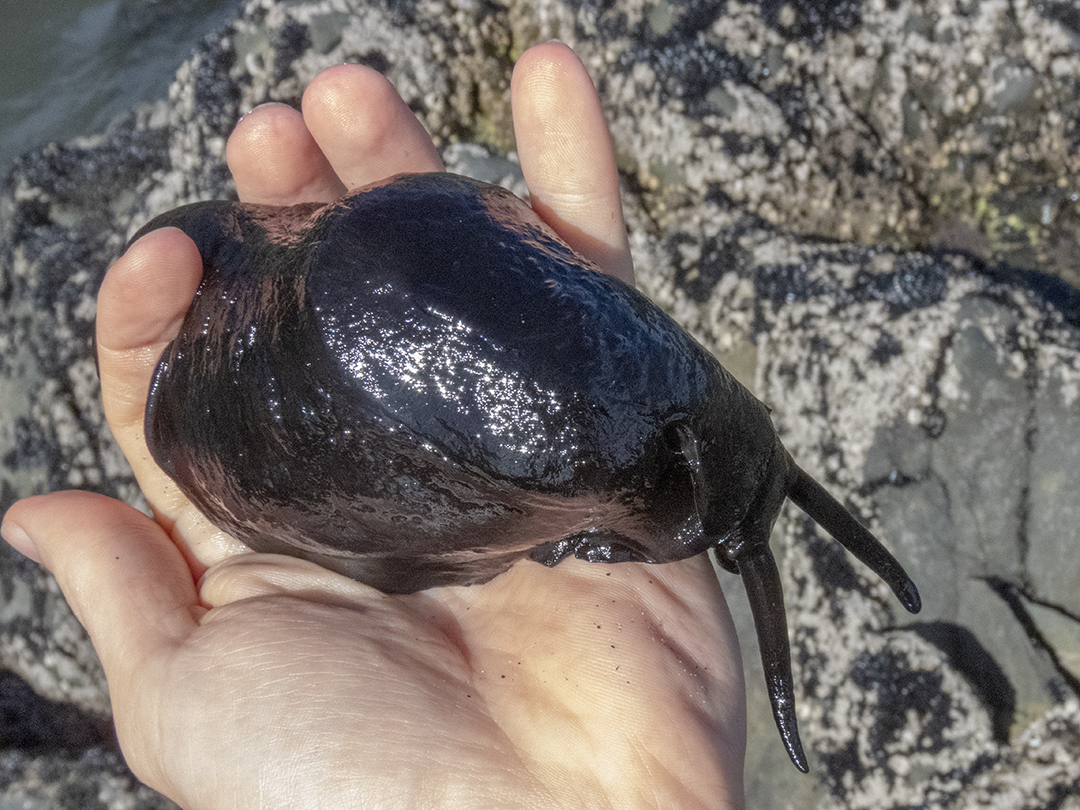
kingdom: Animalia
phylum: Mollusca
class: Gastropoda
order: Lepetellida
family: Fissurellidae
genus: Scutus
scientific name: Scutus breviculus
